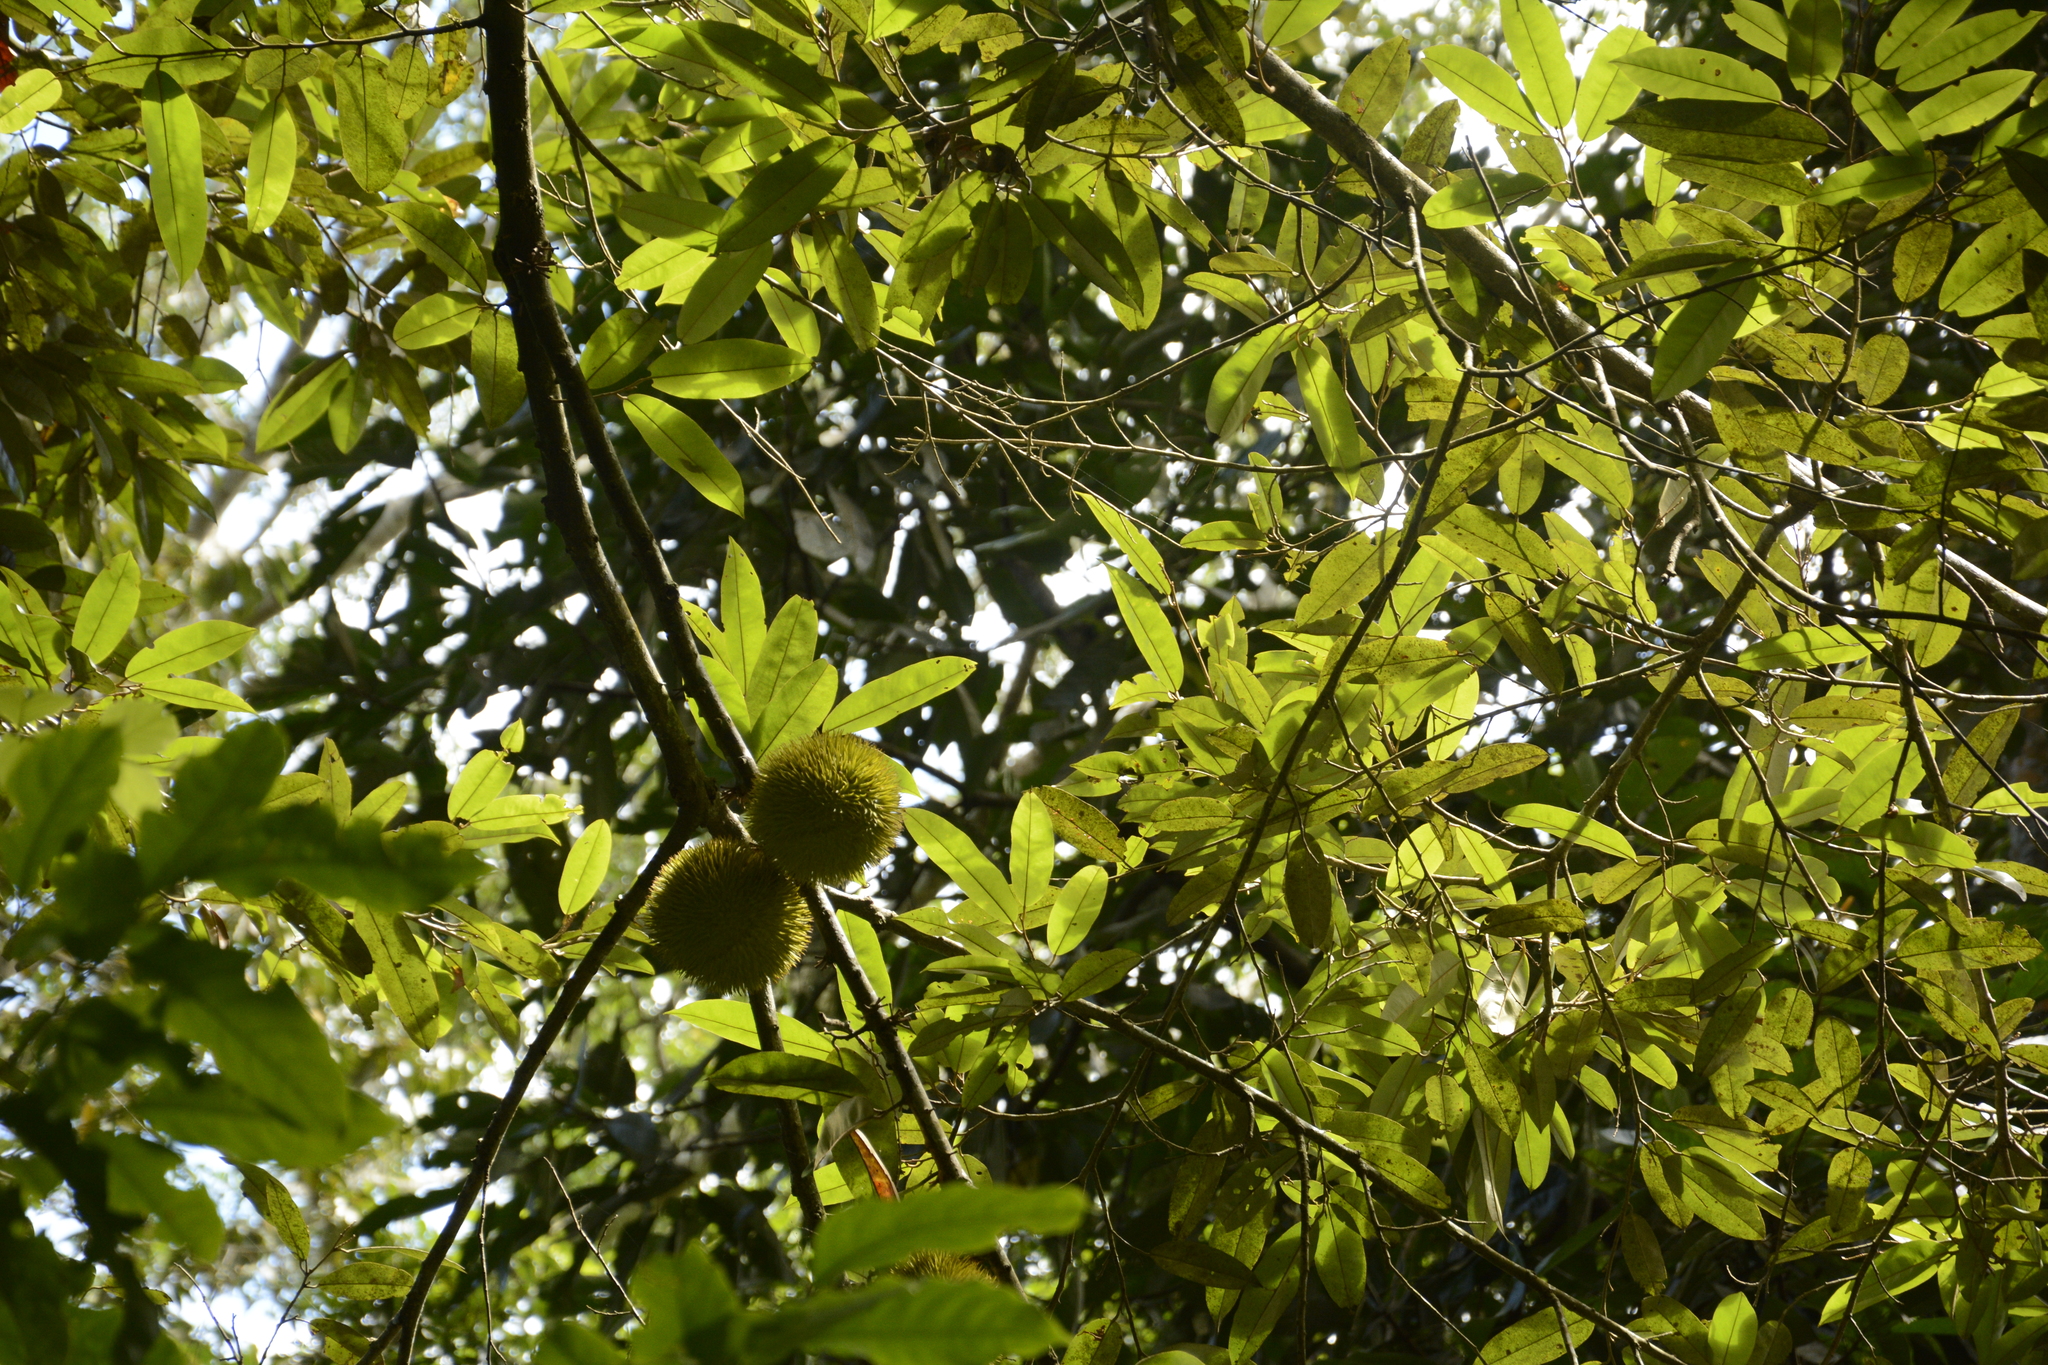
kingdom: Plantae
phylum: Tracheophyta
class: Magnoliopsida
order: Malvales
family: Malvaceae
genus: Cullenia
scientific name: Cullenia exarillata
